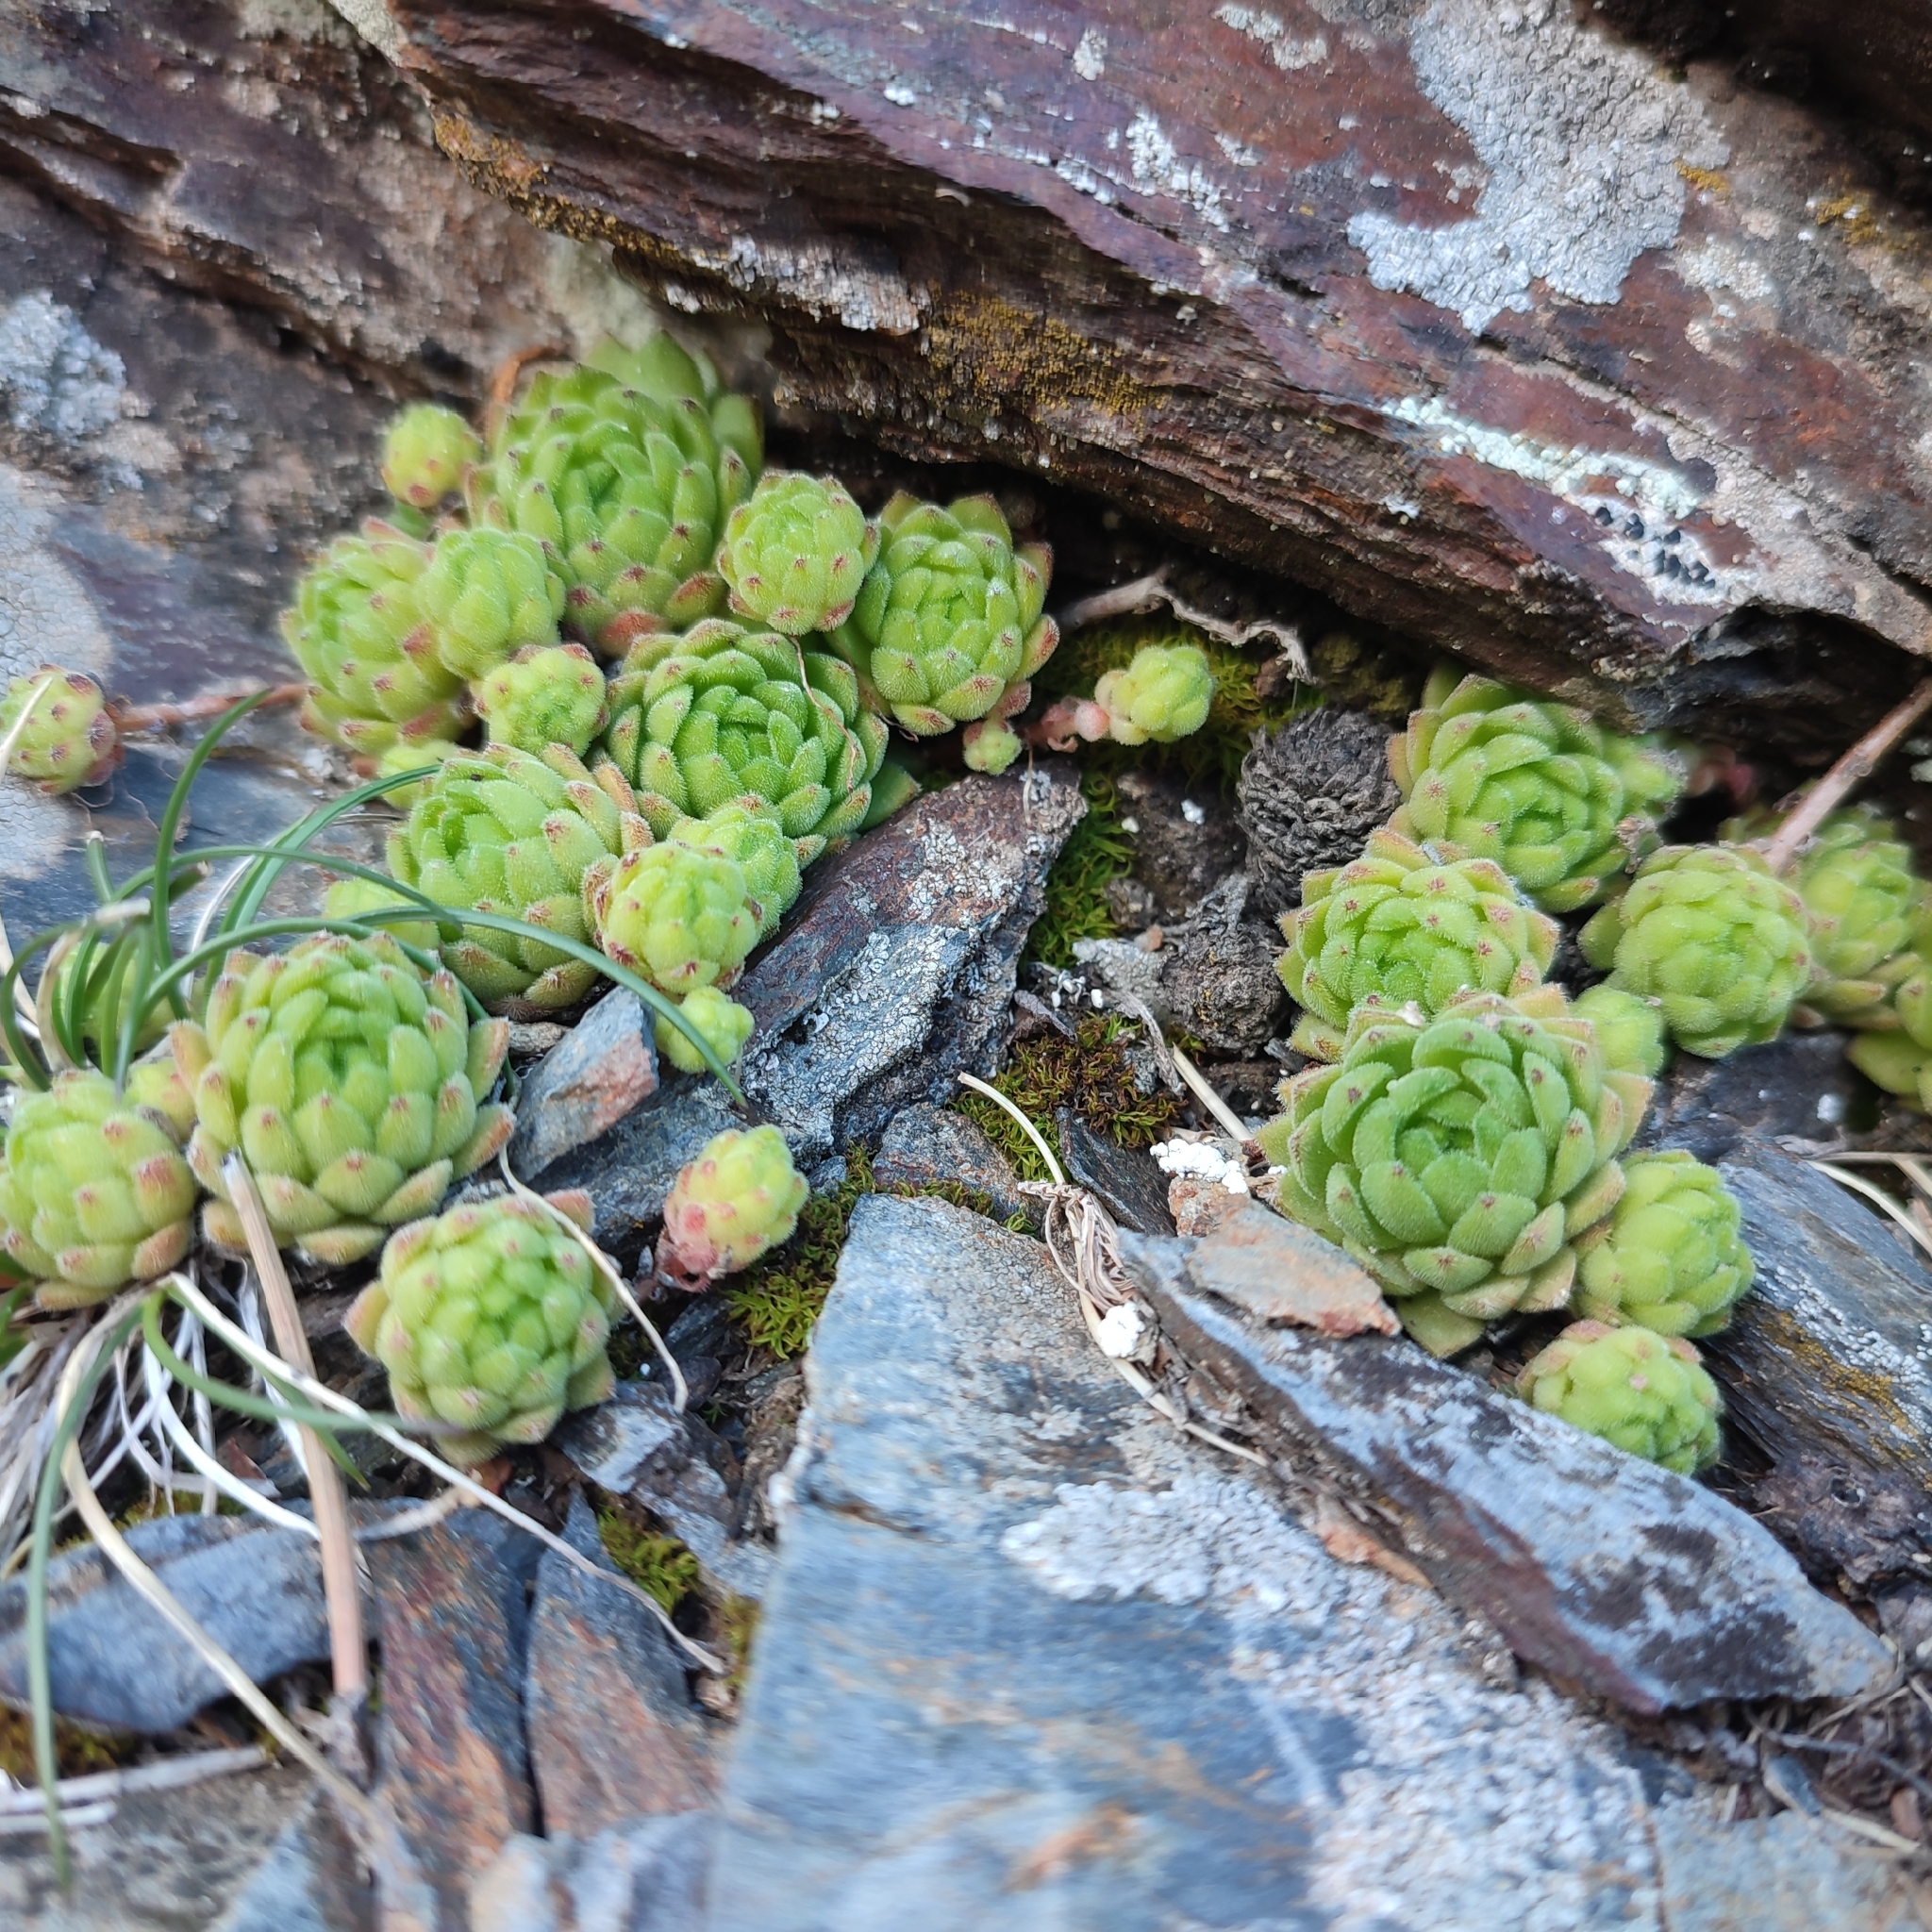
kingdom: Plantae
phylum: Tracheophyta
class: Magnoliopsida
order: Saxifragales
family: Crassulaceae
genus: Sempervivum
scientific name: Sempervivum montanum
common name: Mountain house-leek
